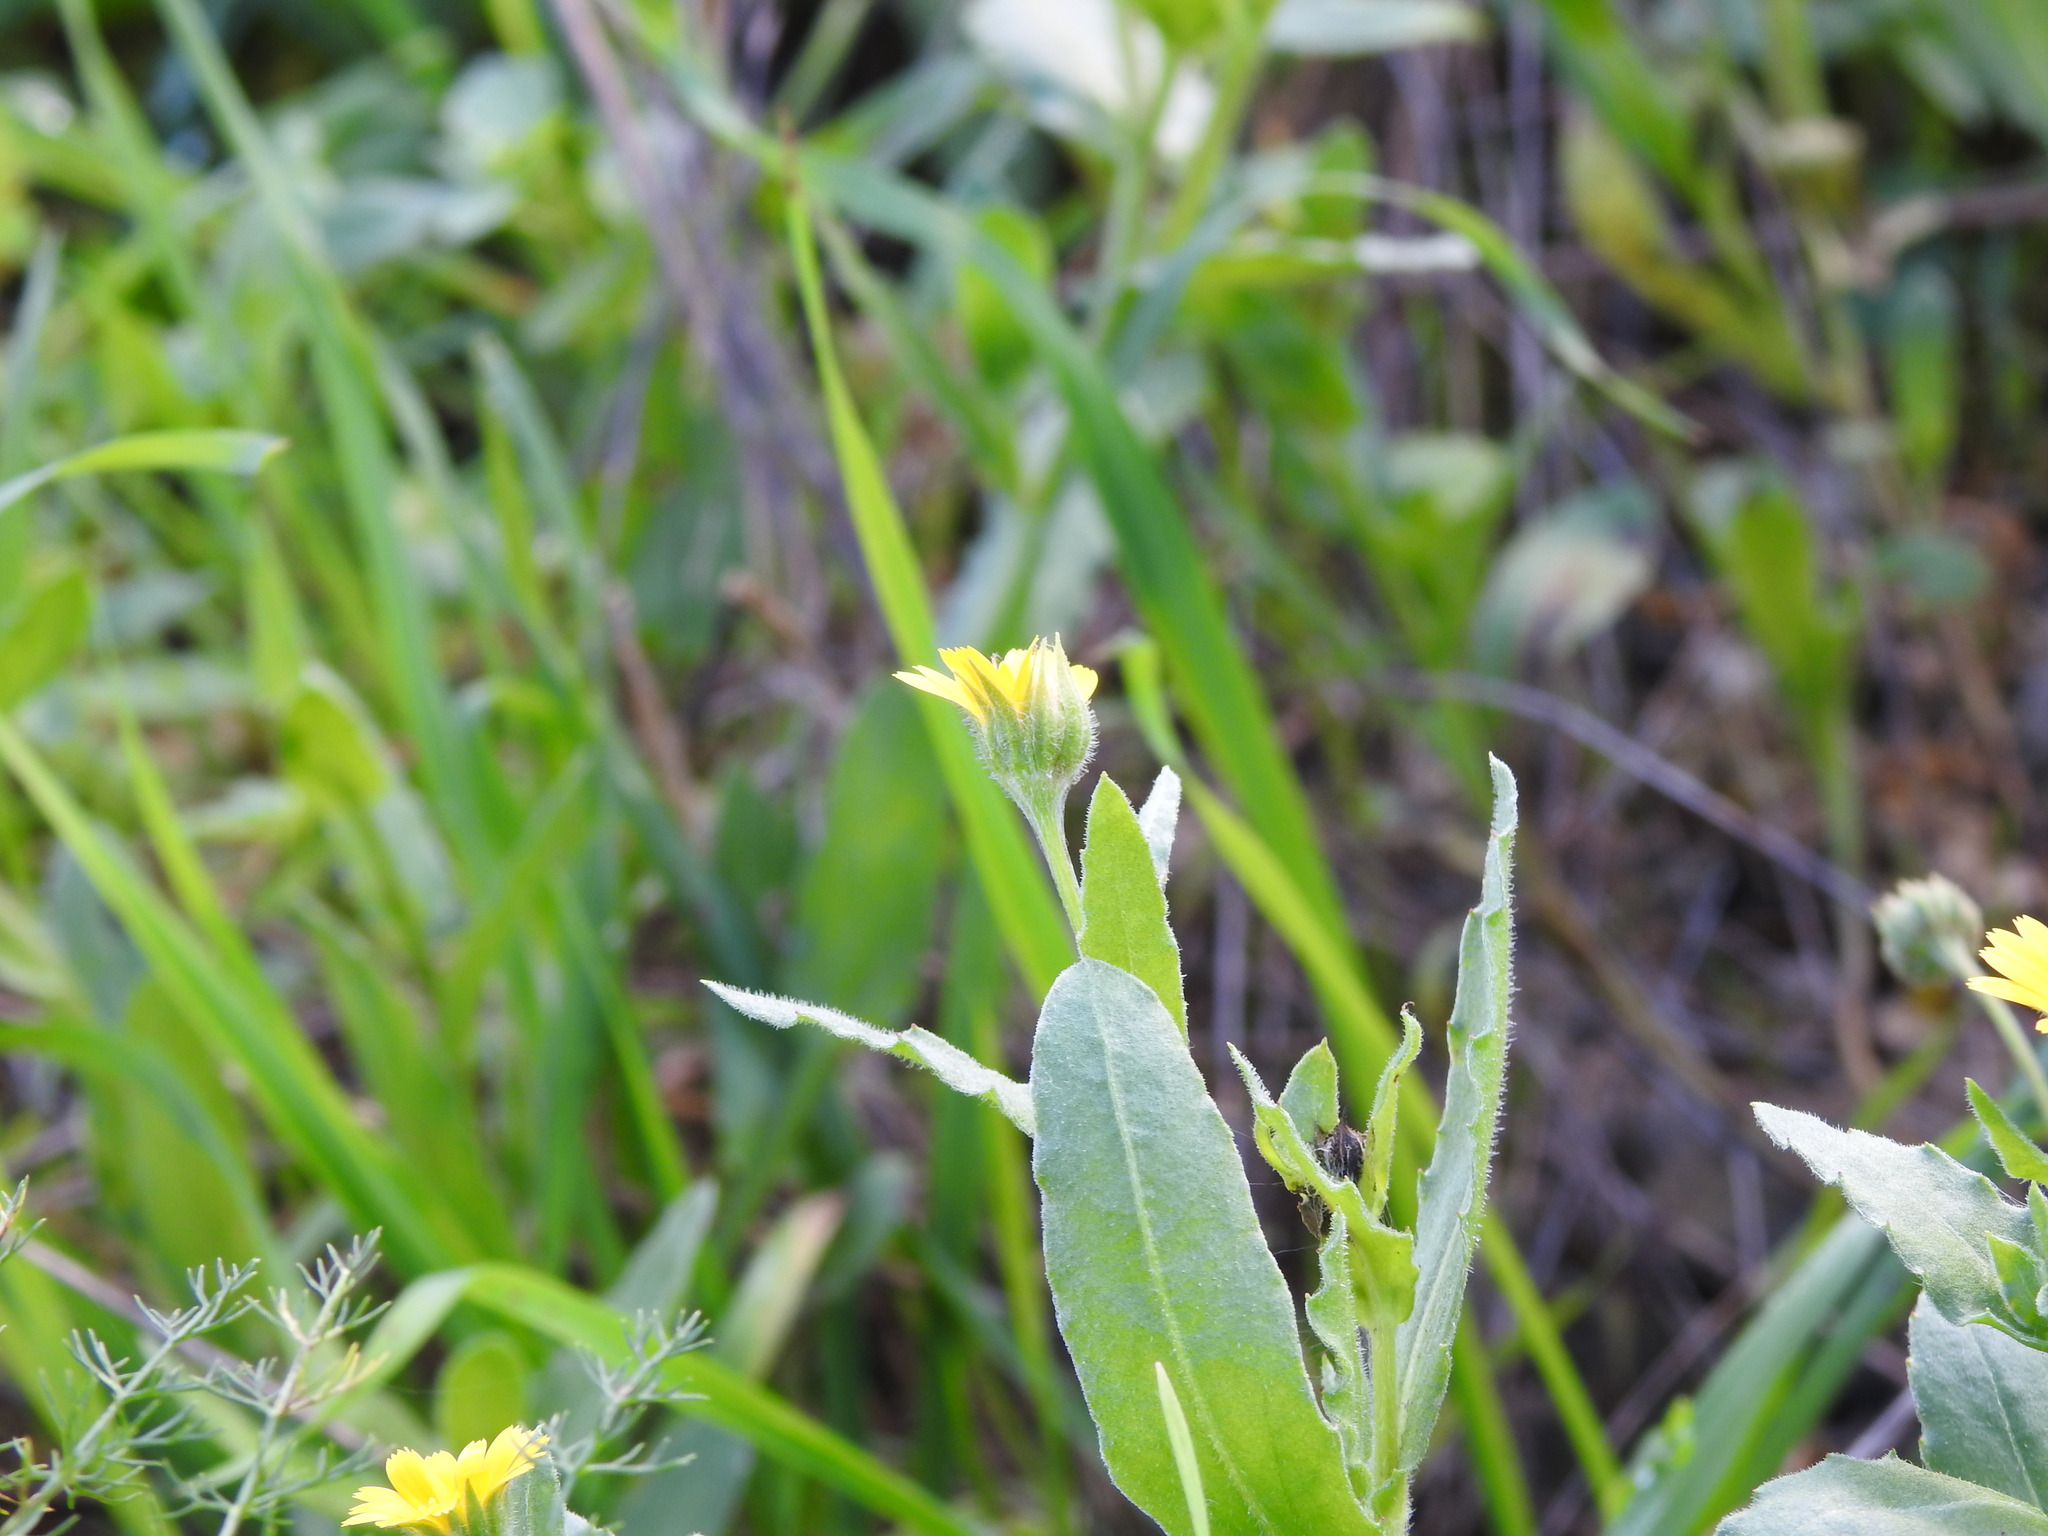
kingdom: Plantae
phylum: Tracheophyta
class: Magnoliopsida
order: Asterales
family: Asteraceae
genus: Calendula
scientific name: Calendula arvensis
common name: Field marigold
